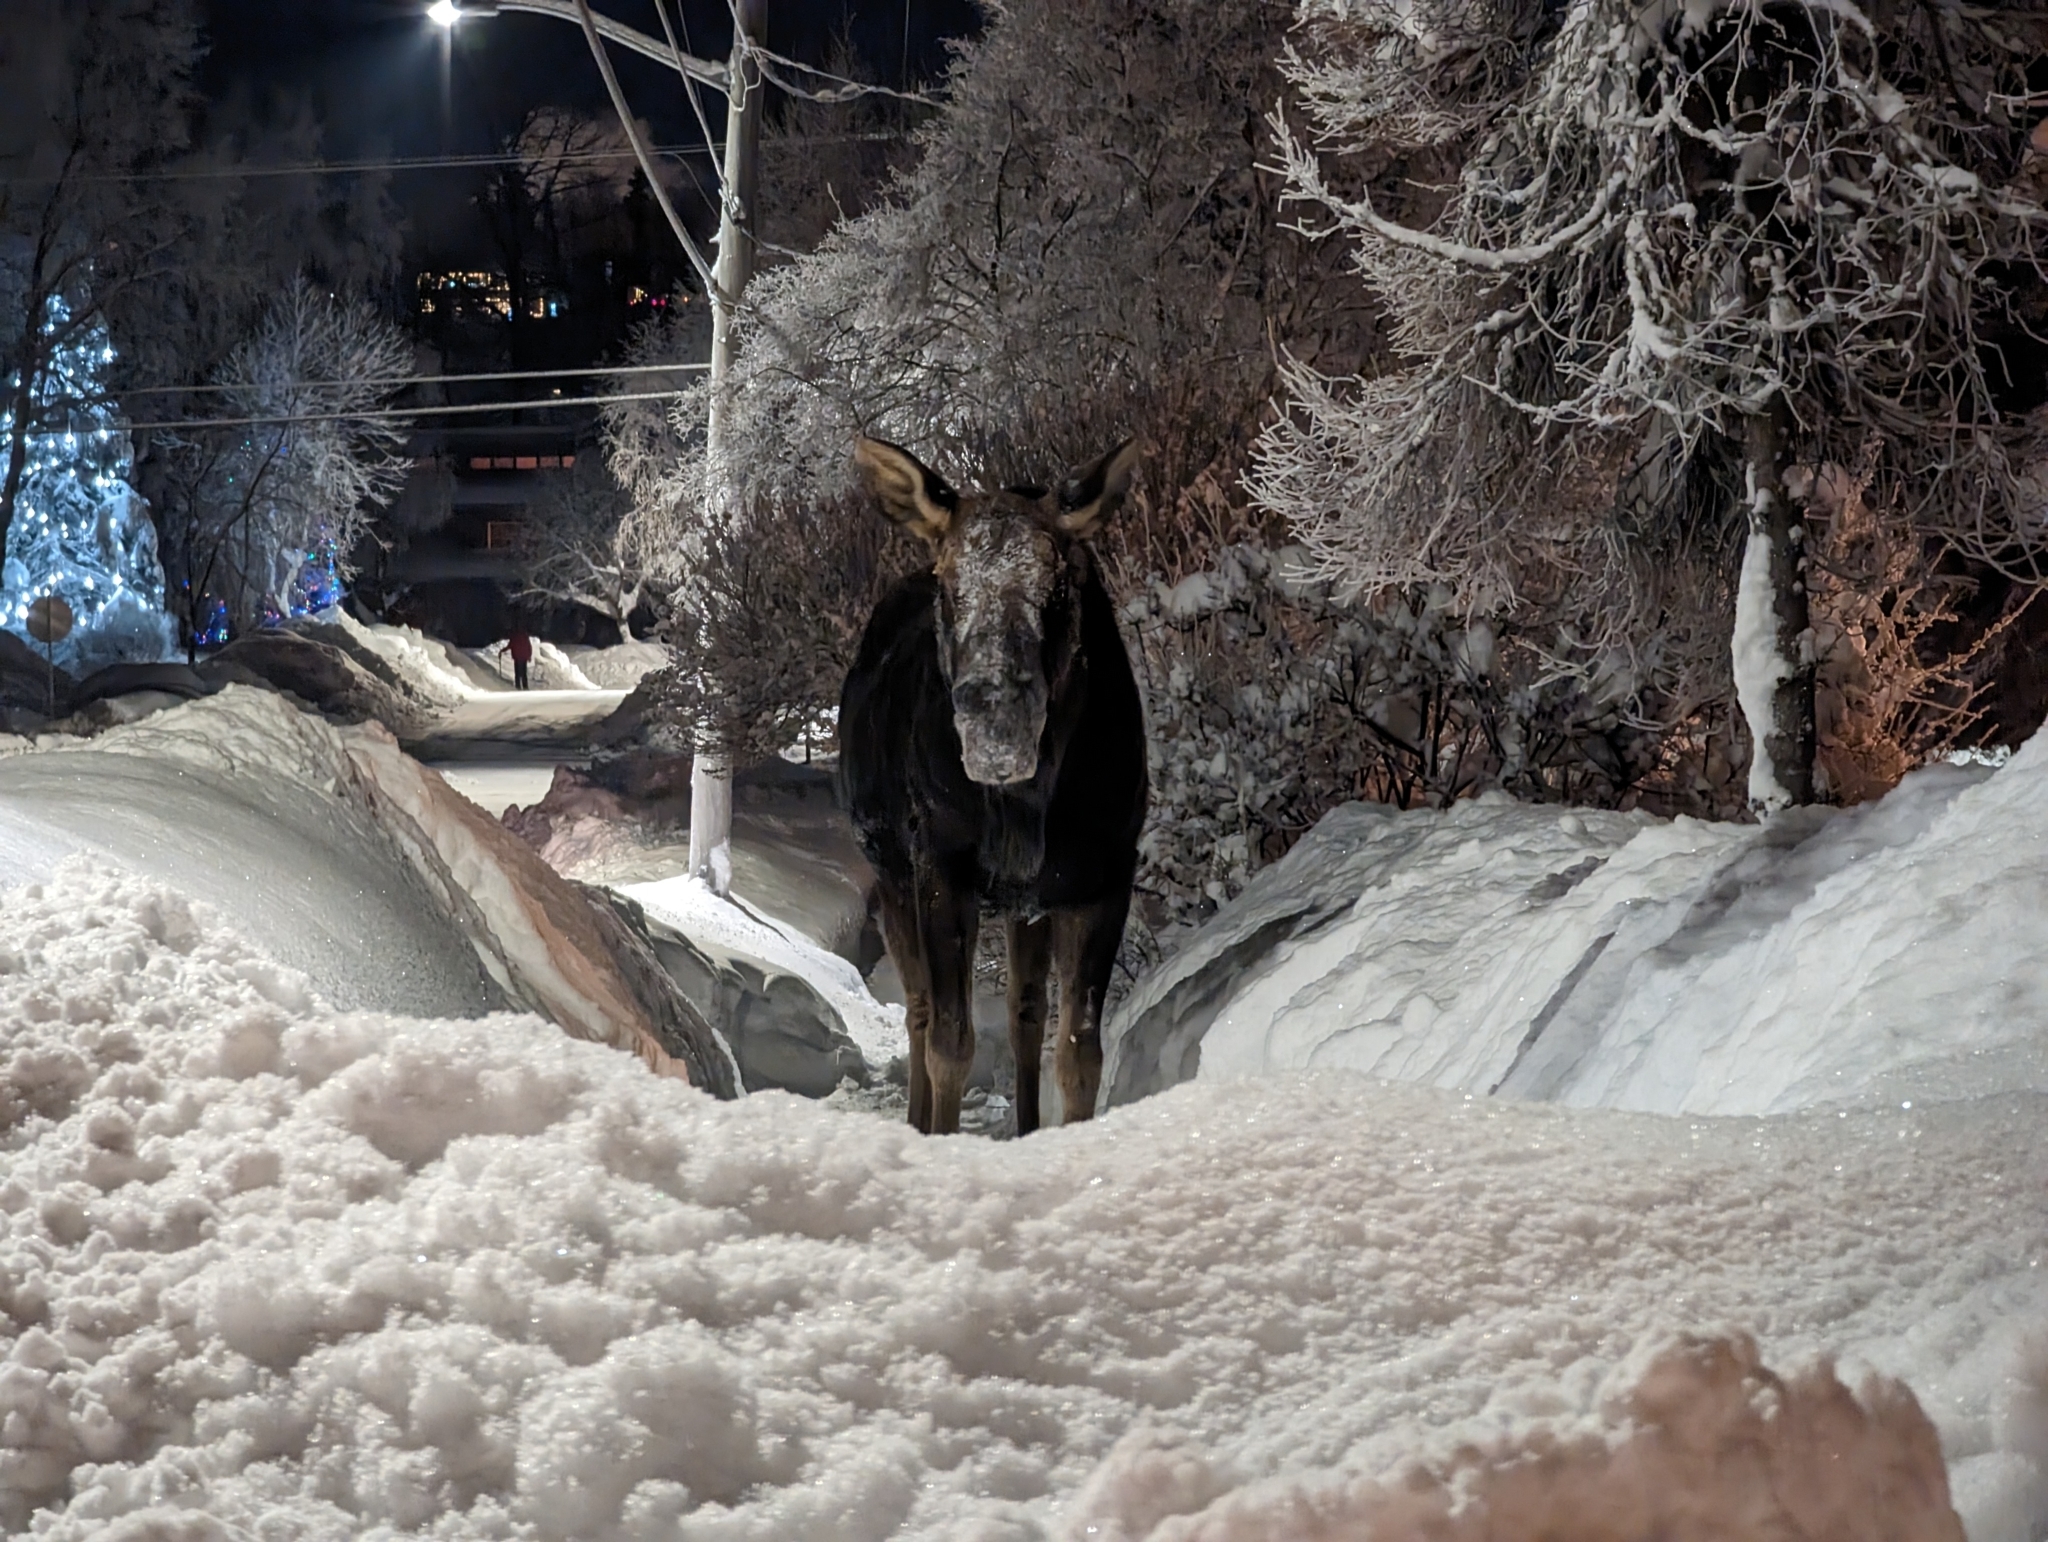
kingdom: Animalia
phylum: Chordata
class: Mammalia
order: Artiodactyla
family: Cervidae
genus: Alces
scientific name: Alces alces
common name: Moose
